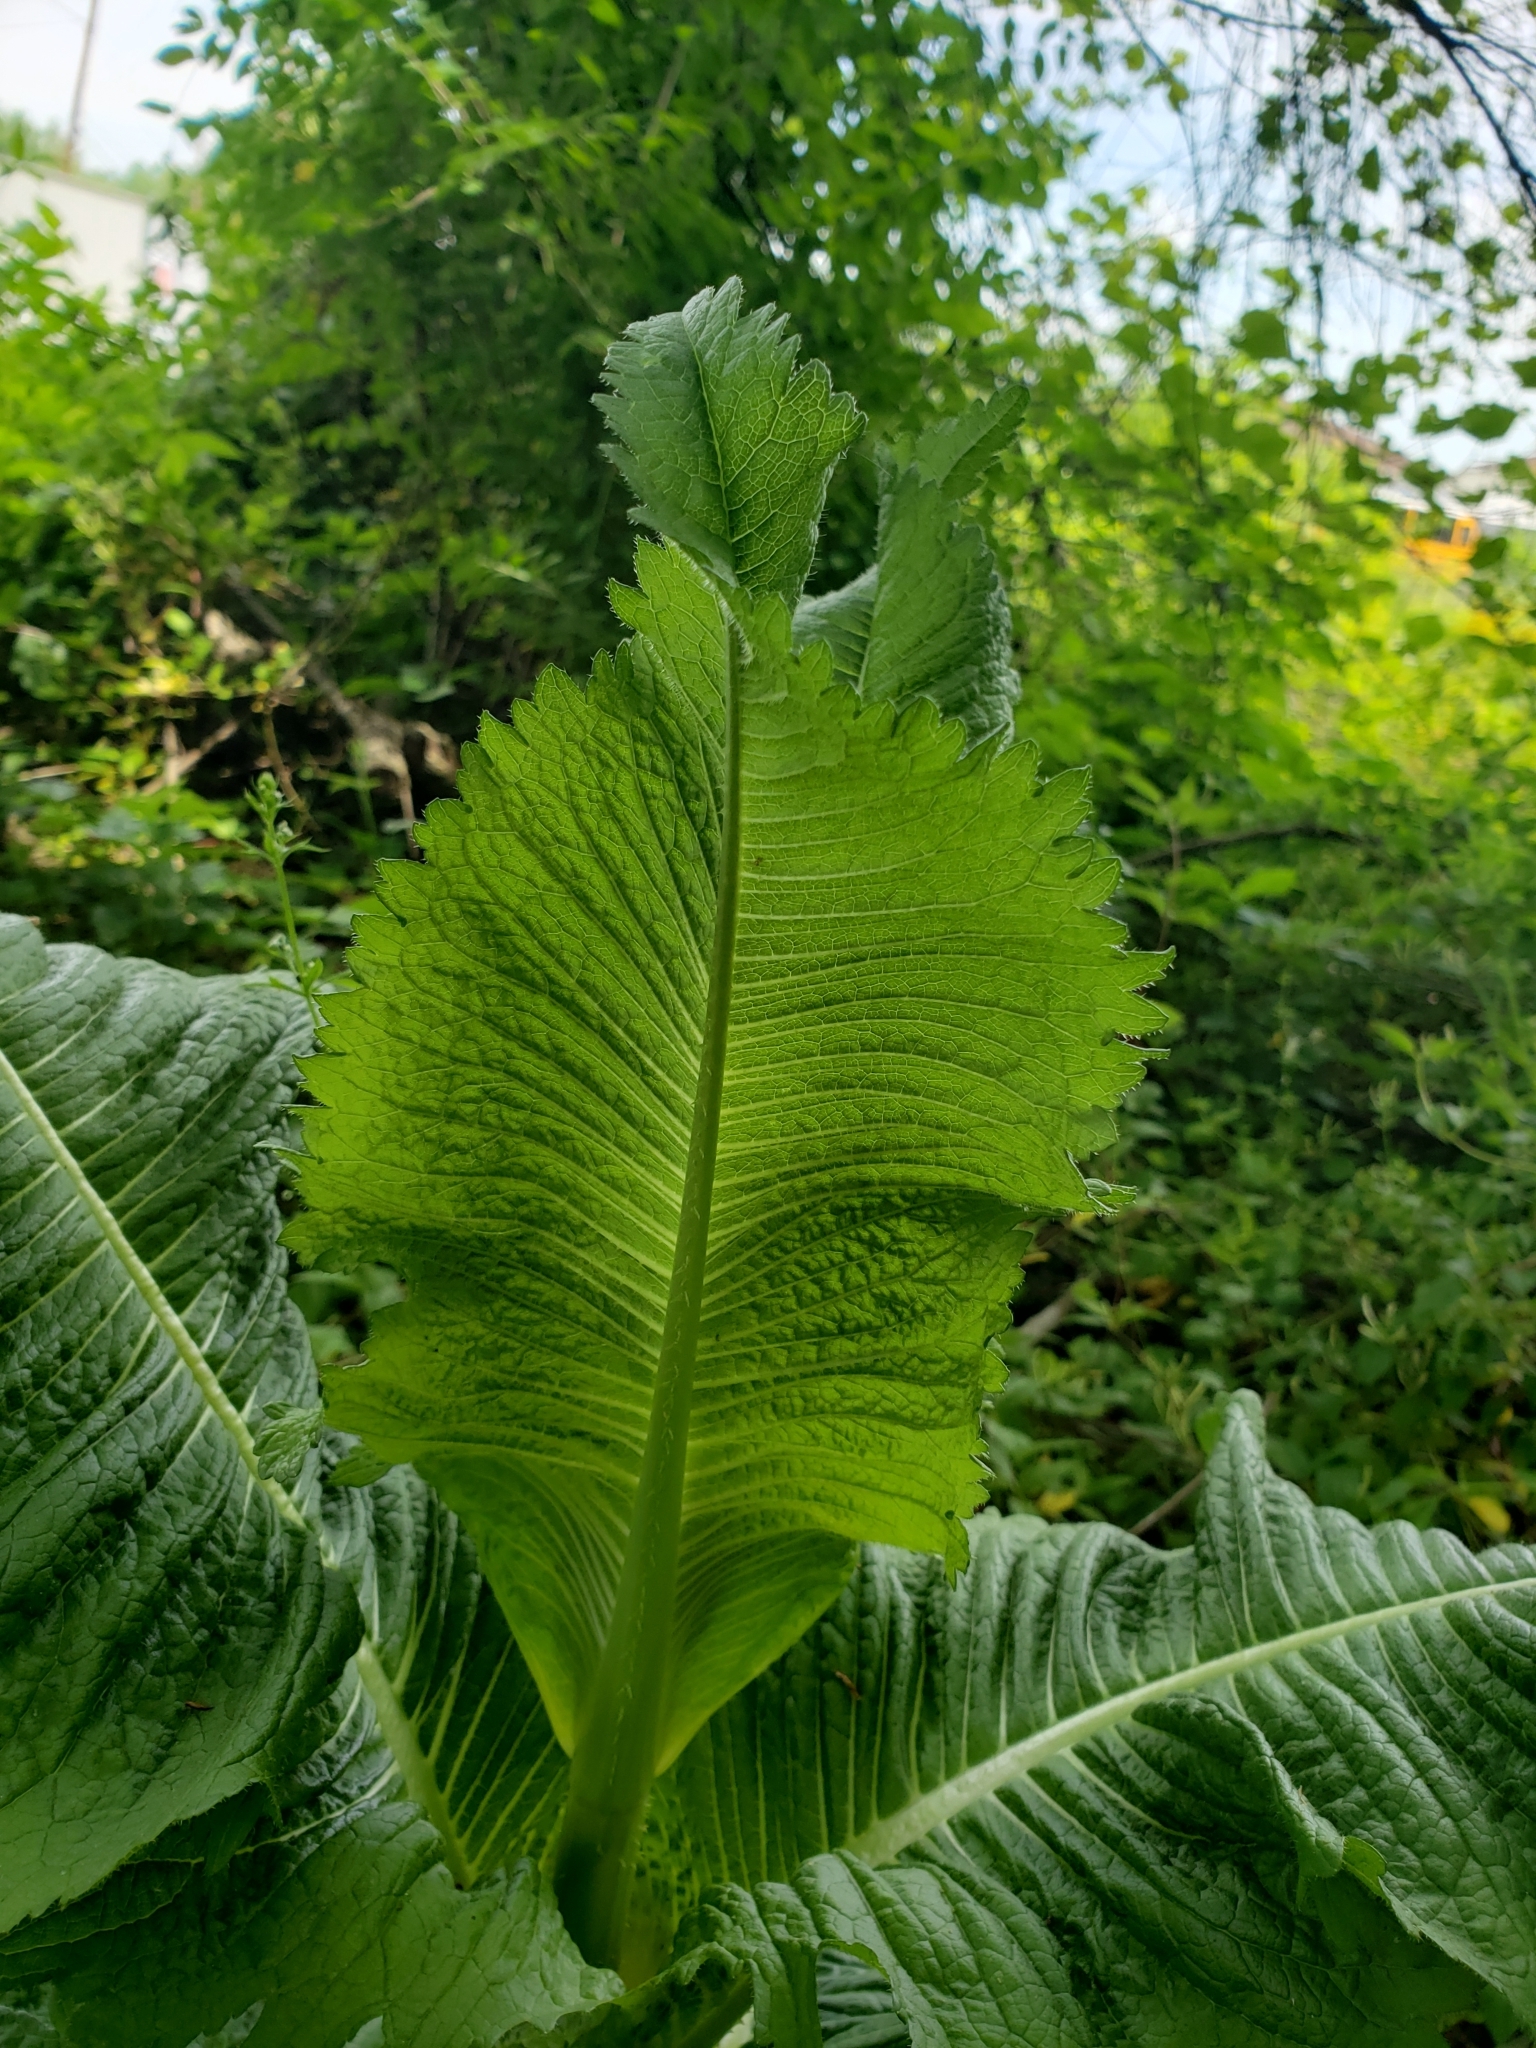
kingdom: Plantae
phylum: Tracheophyta
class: Magnoliopsida
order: Dipsacales
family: Caprifoliaceae
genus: Dipsacus
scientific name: Dipsacus laciniatus
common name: Cut-leaved teasel
